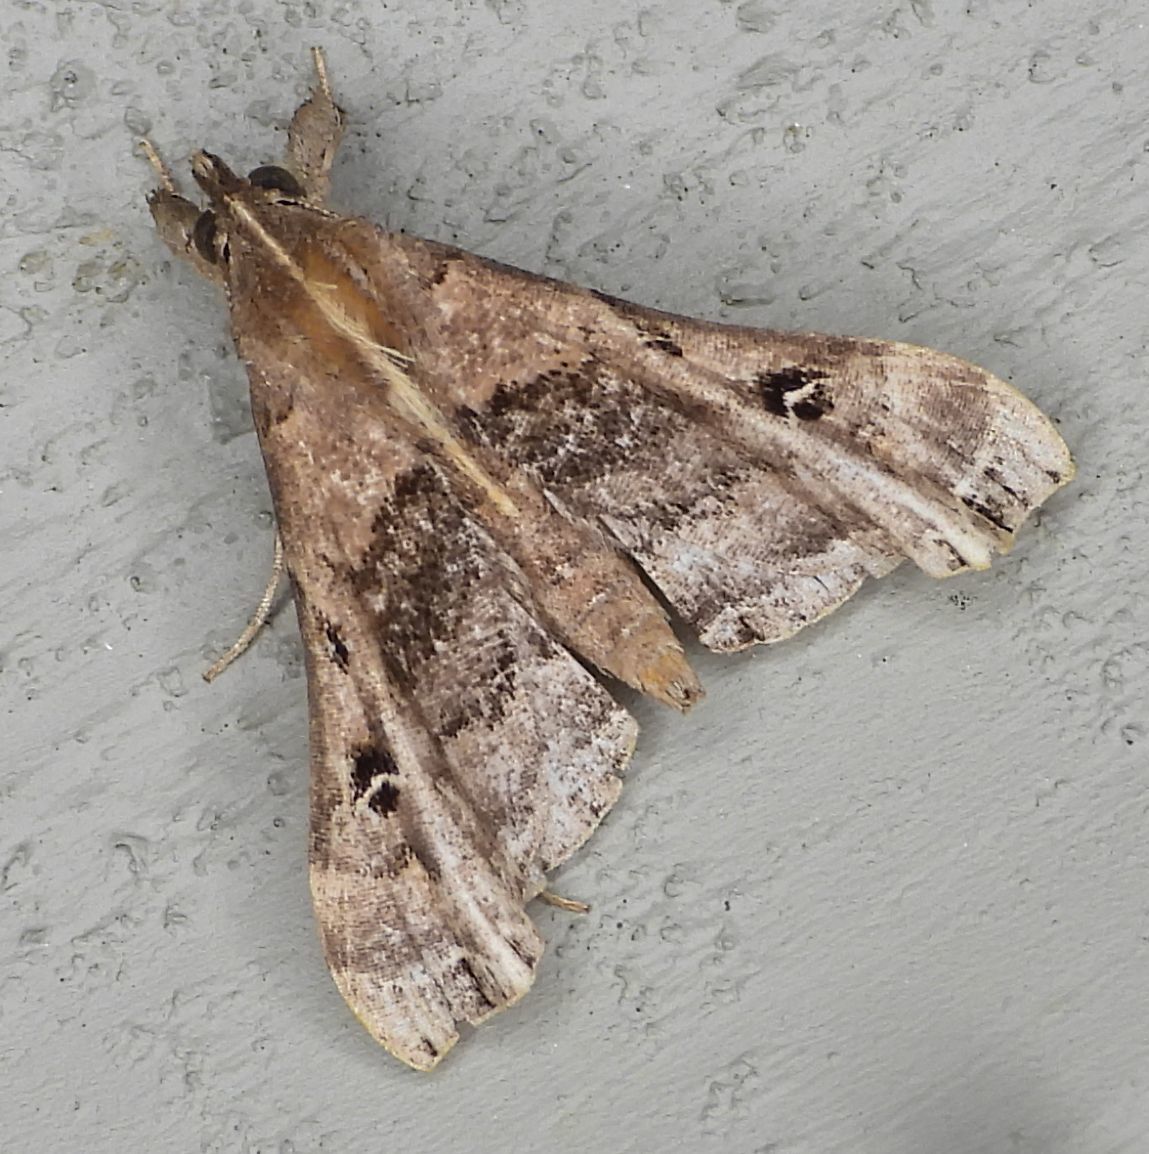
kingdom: Animalia
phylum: Arthropoda
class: Insecta
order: Lepidoptera
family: Erebidae
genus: Palthis
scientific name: Palthis asopialis
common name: Faint-spotted palthis moth
